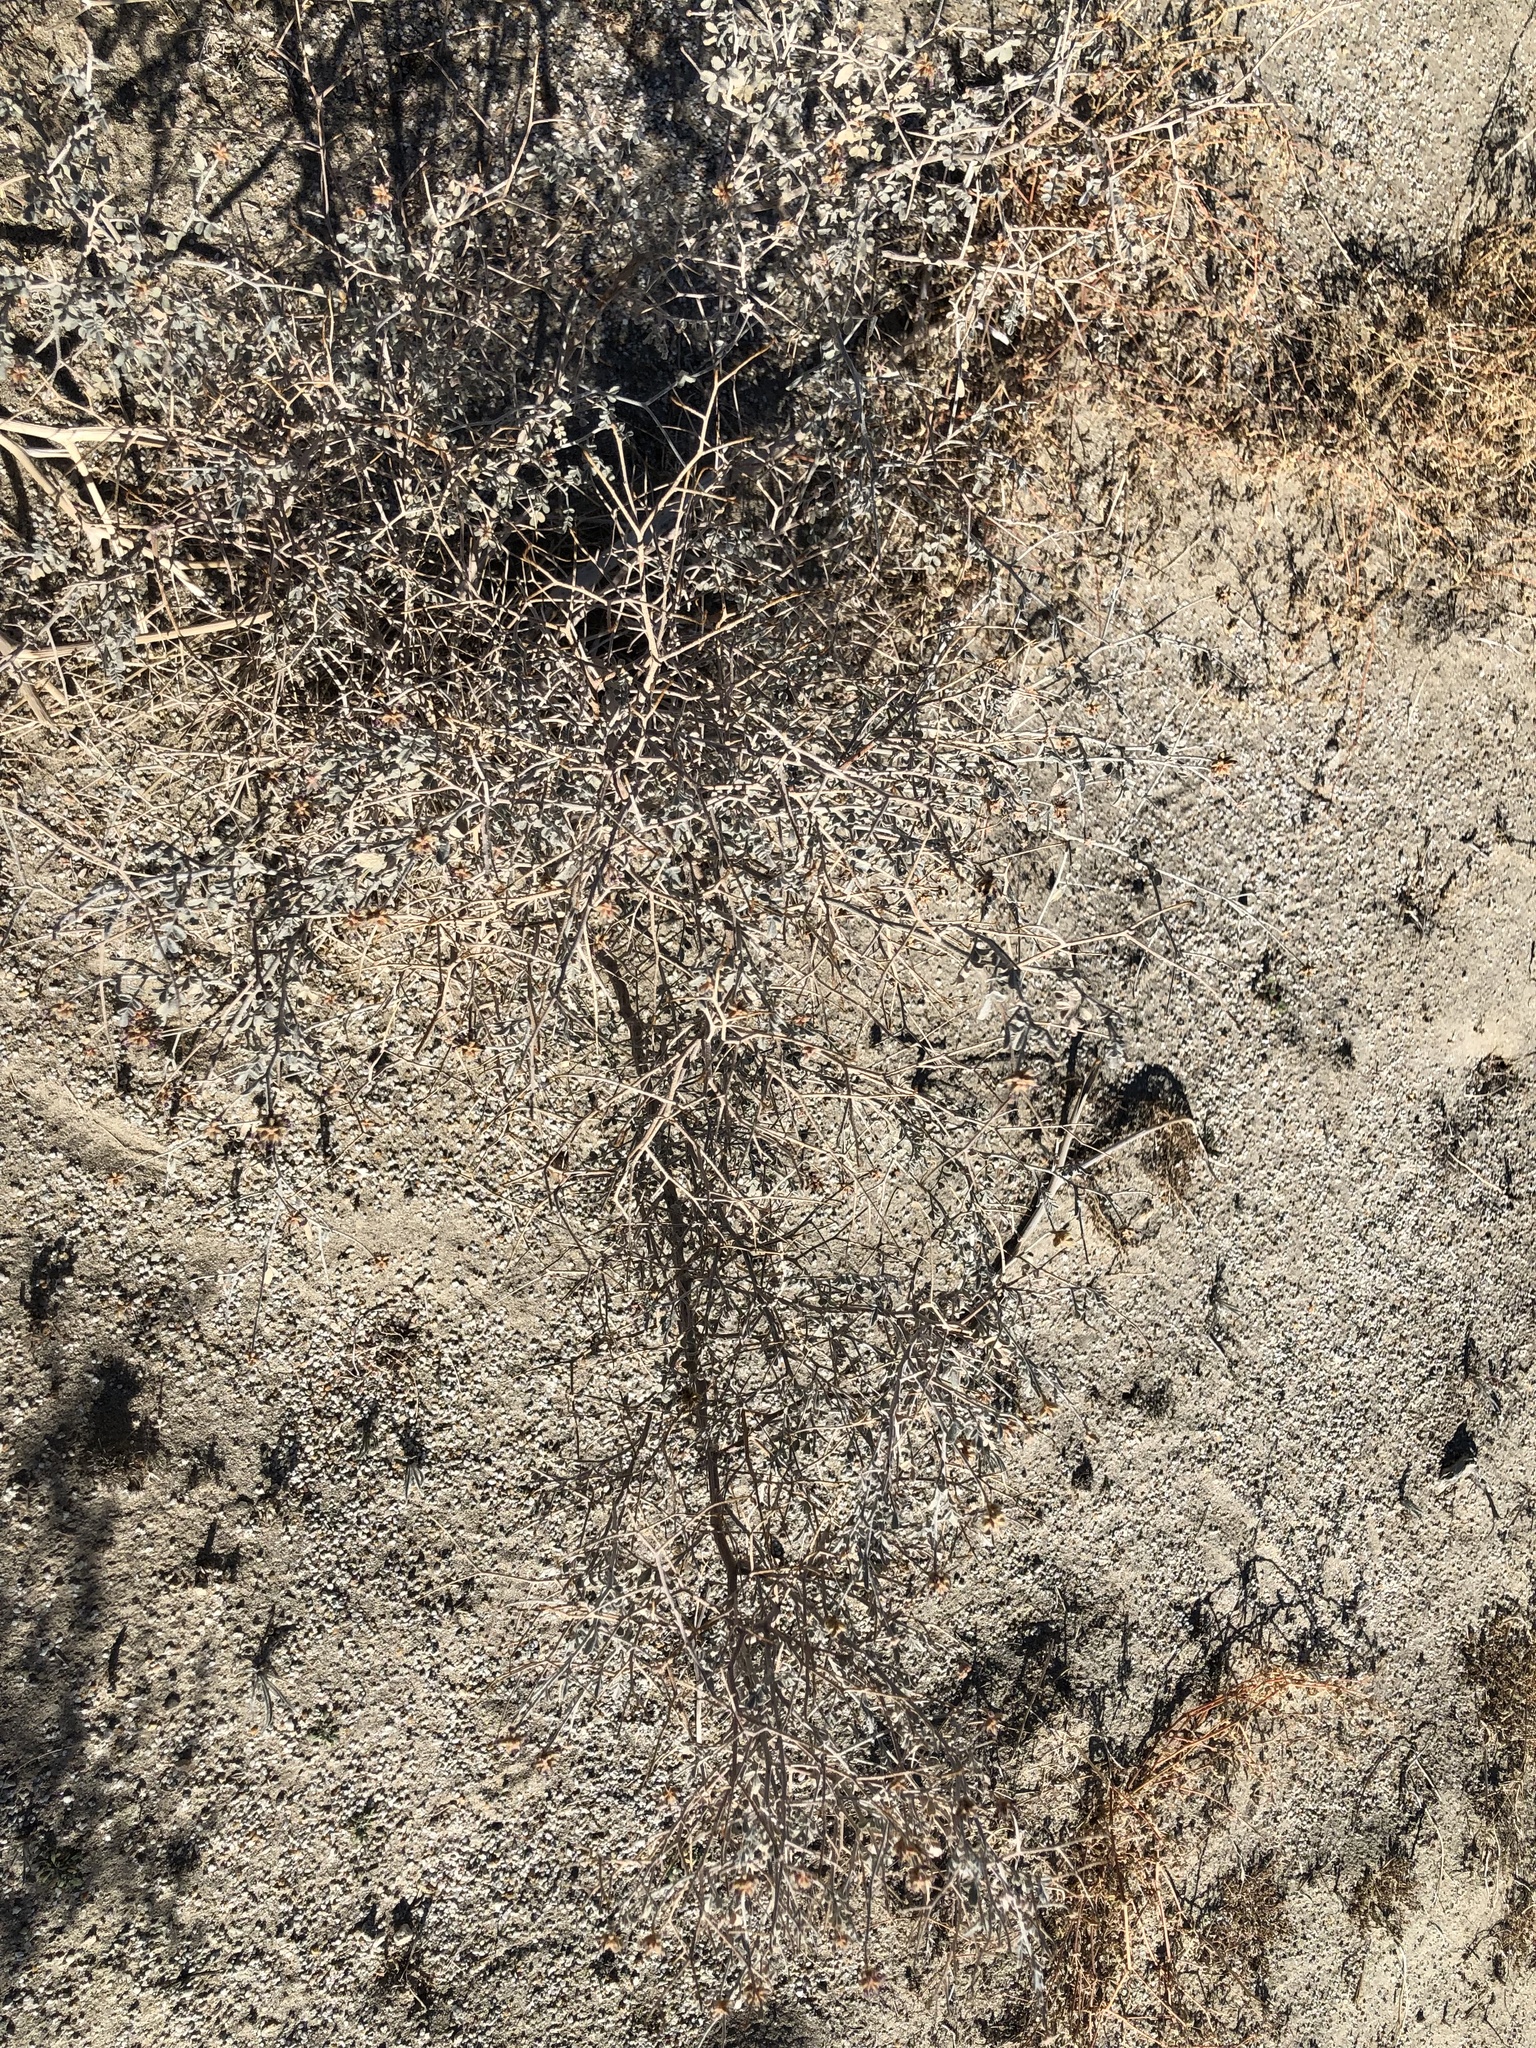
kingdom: Plantae
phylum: Tracheophyta
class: Magnoliopsida
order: Fabales
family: Fabaceae
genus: Psorothamnus
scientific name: Psorothamnus emoryi
